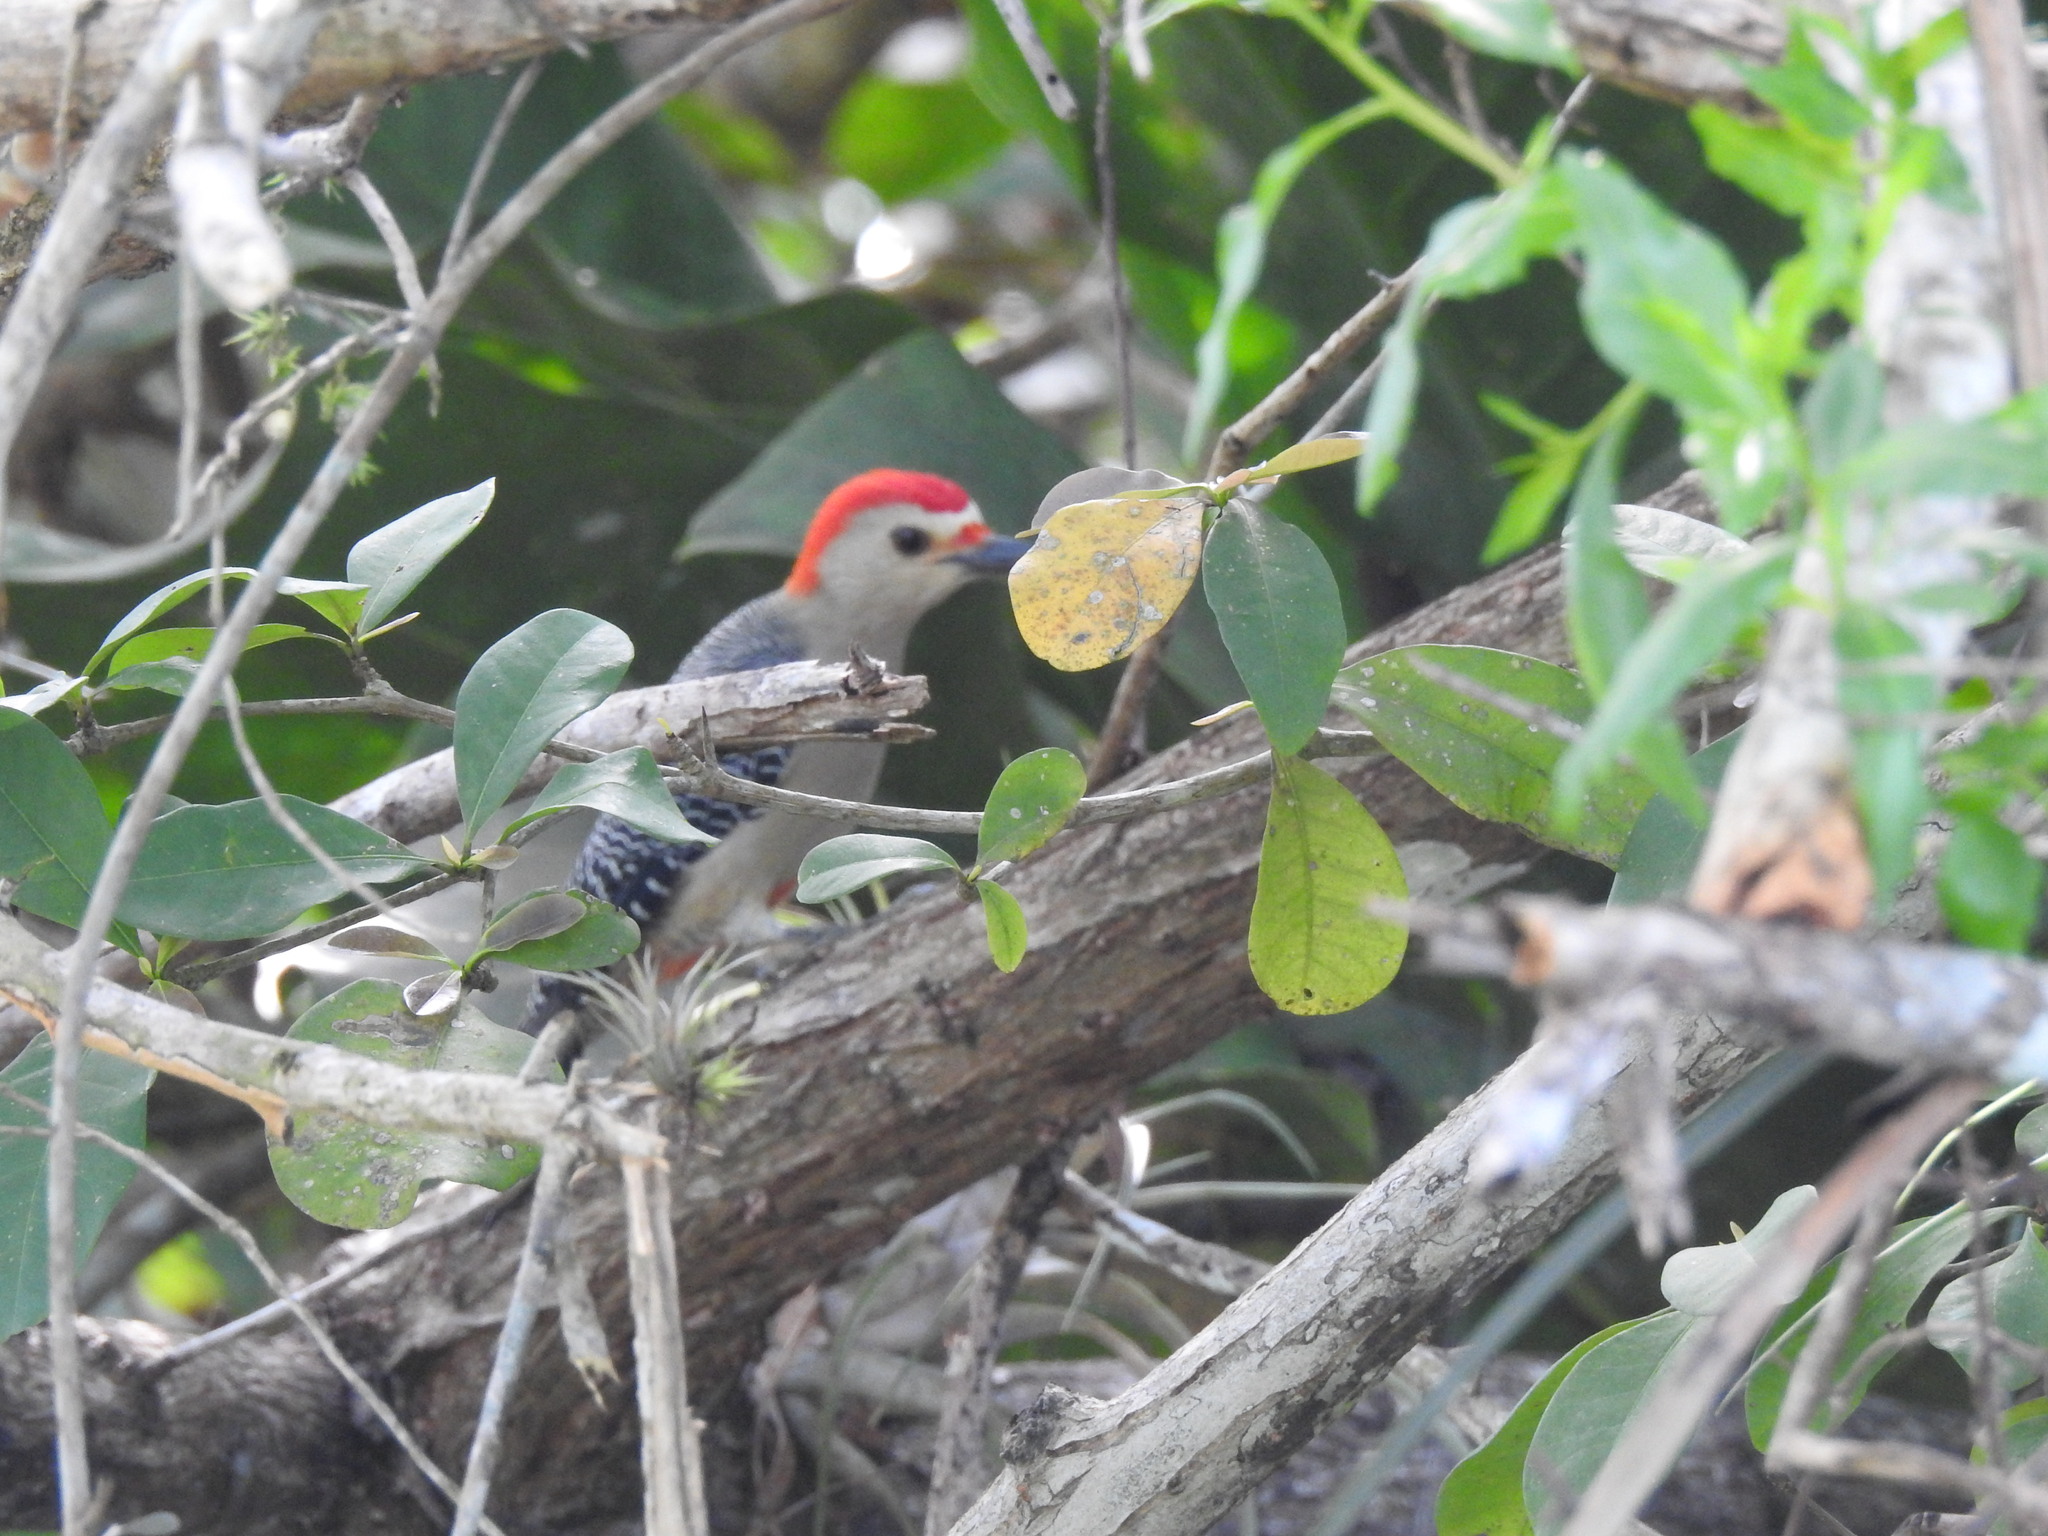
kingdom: Animalia
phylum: Chordata
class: Aves
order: Piciformes
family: Picidae
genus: Melanerpes
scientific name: Melanerpes aurifrons
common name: Golden-fronted woodpecker
